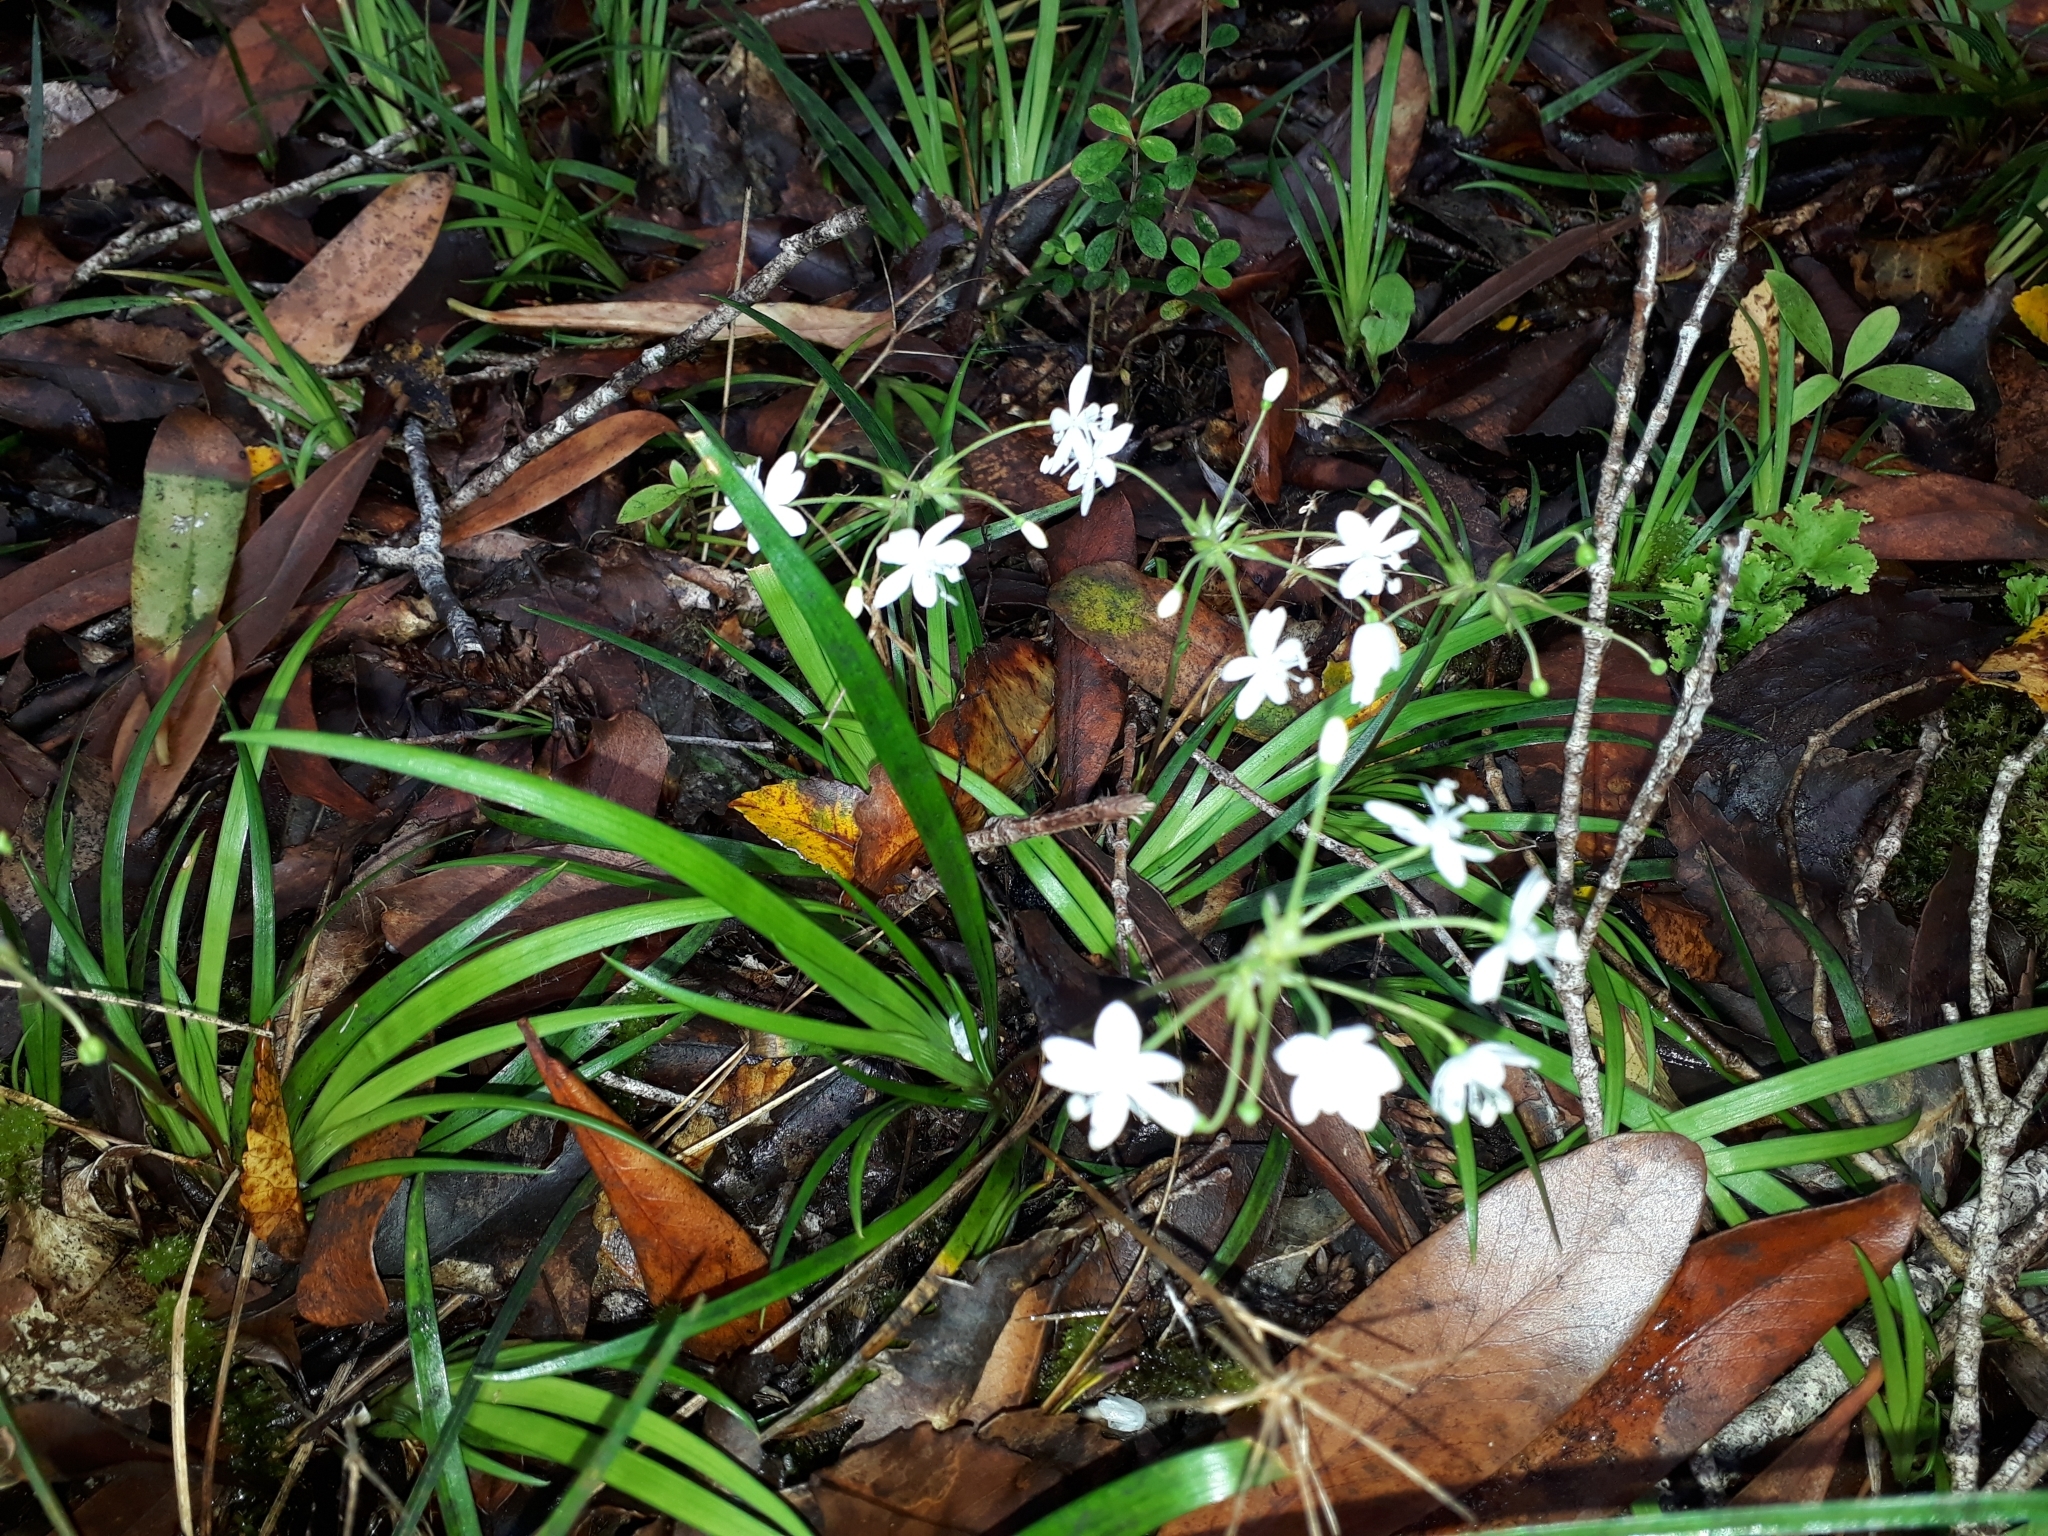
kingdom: Plantae
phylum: Tracheophyta
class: Liliopsida
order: Asparagales
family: Iridaceae
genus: Libertia
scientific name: Libertia micrantha
